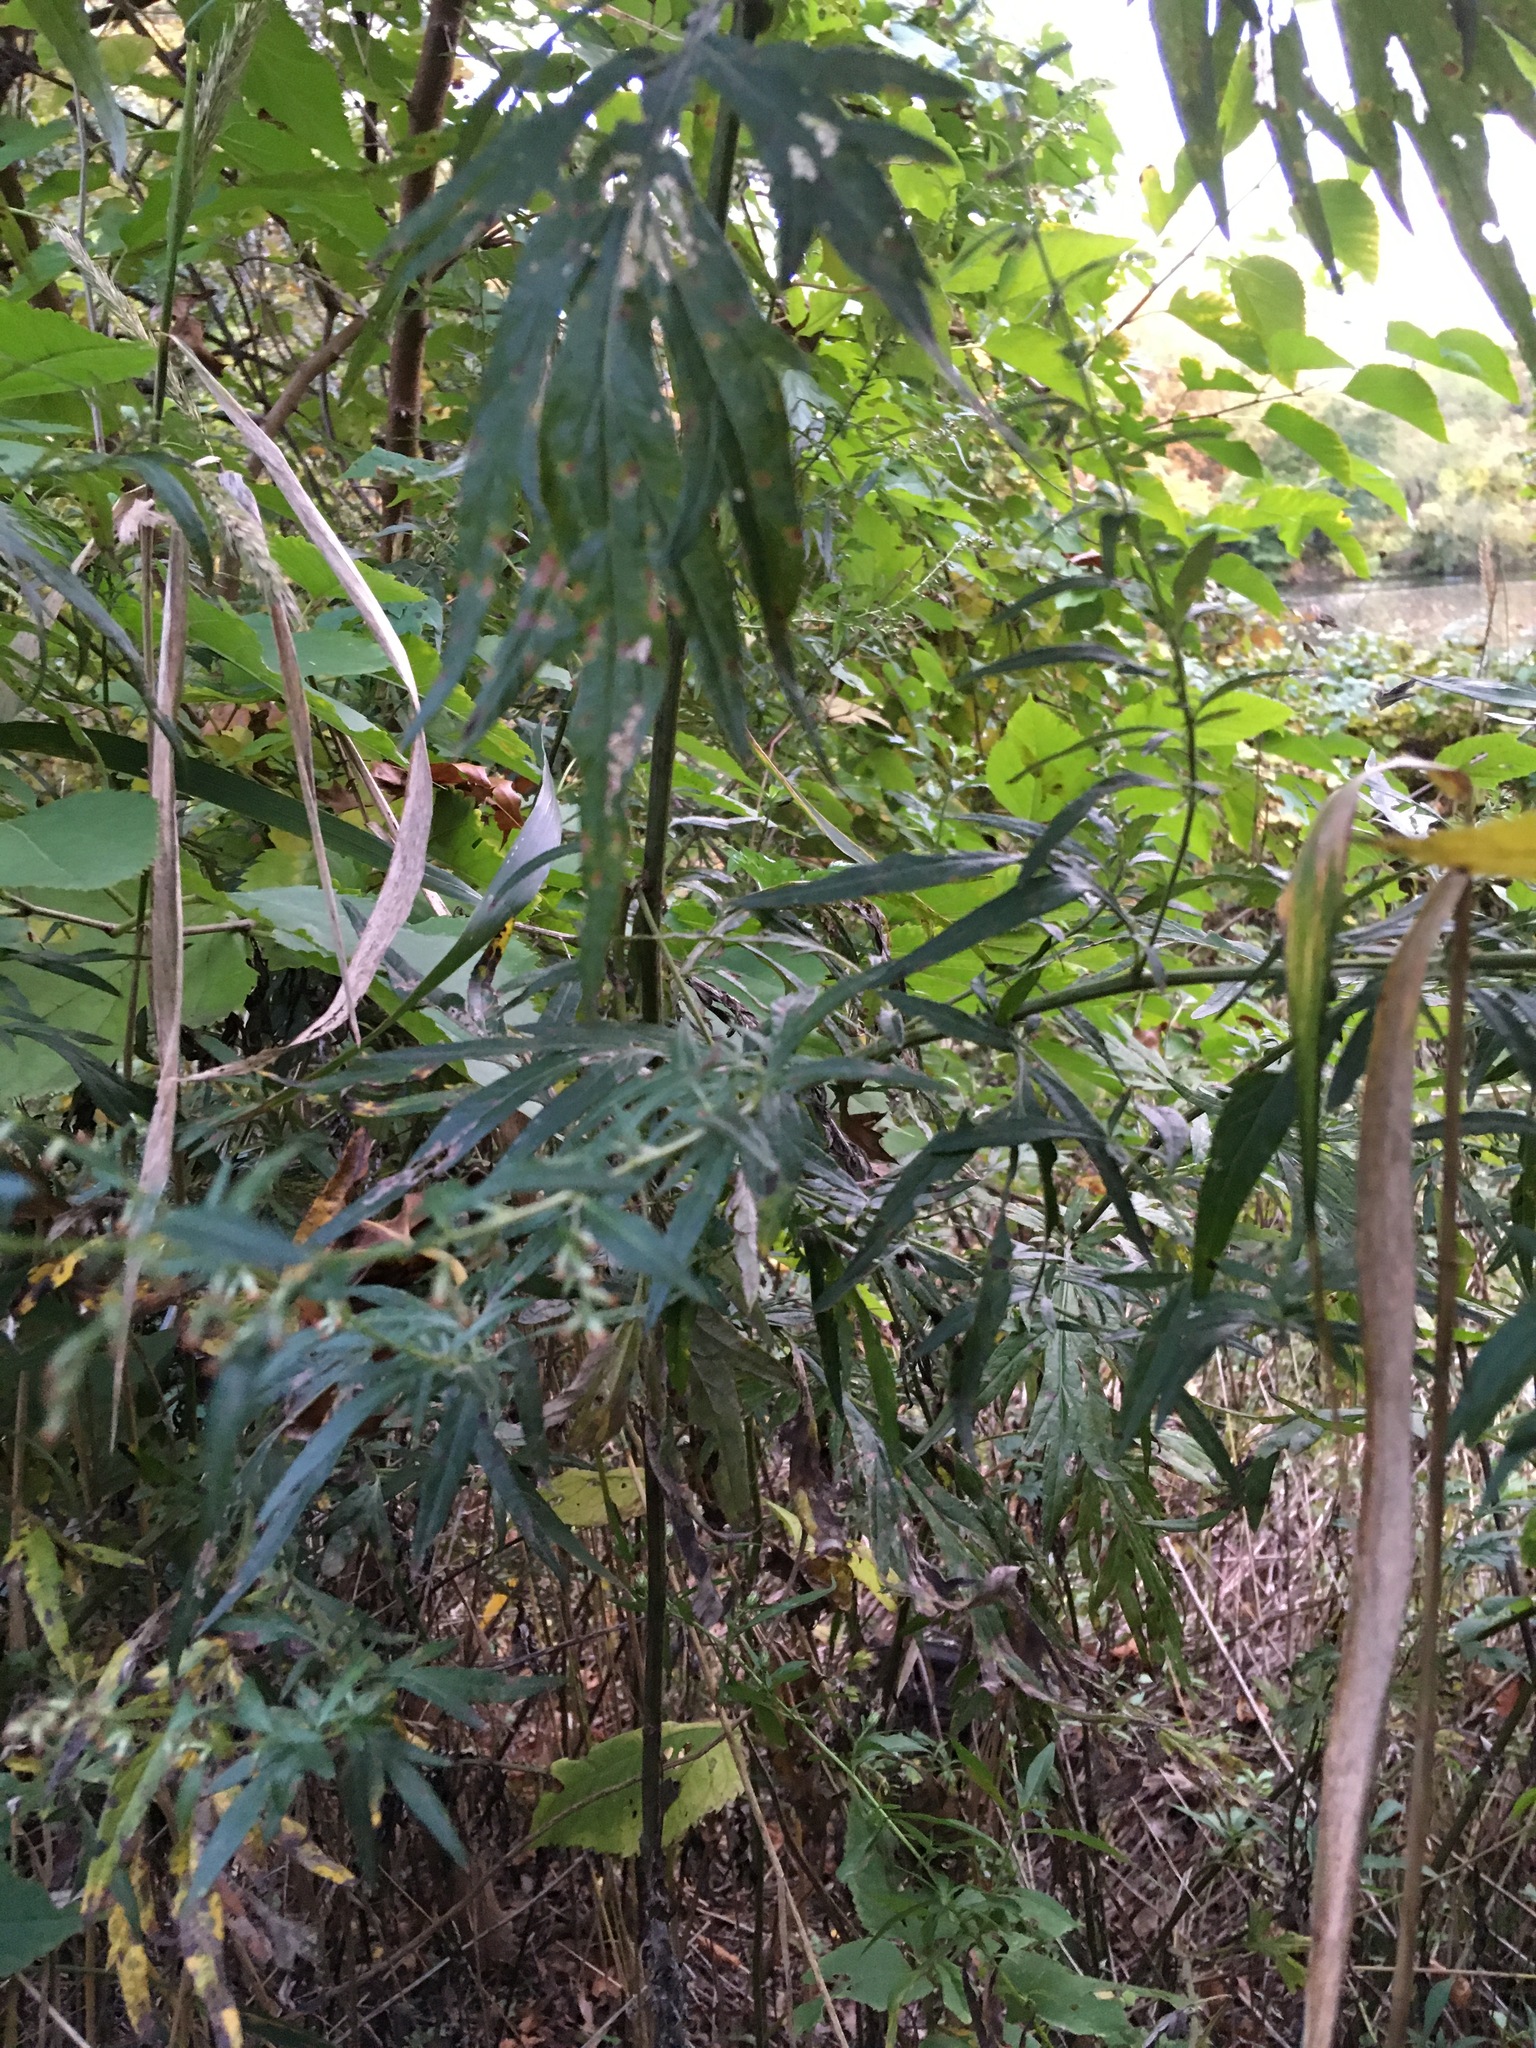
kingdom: Plantae
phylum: Tracheophyta
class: Magnoliopsida
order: Asterales
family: Asteraceae
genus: Artemisia
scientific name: Artemisia vulgaris
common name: Mugwort
